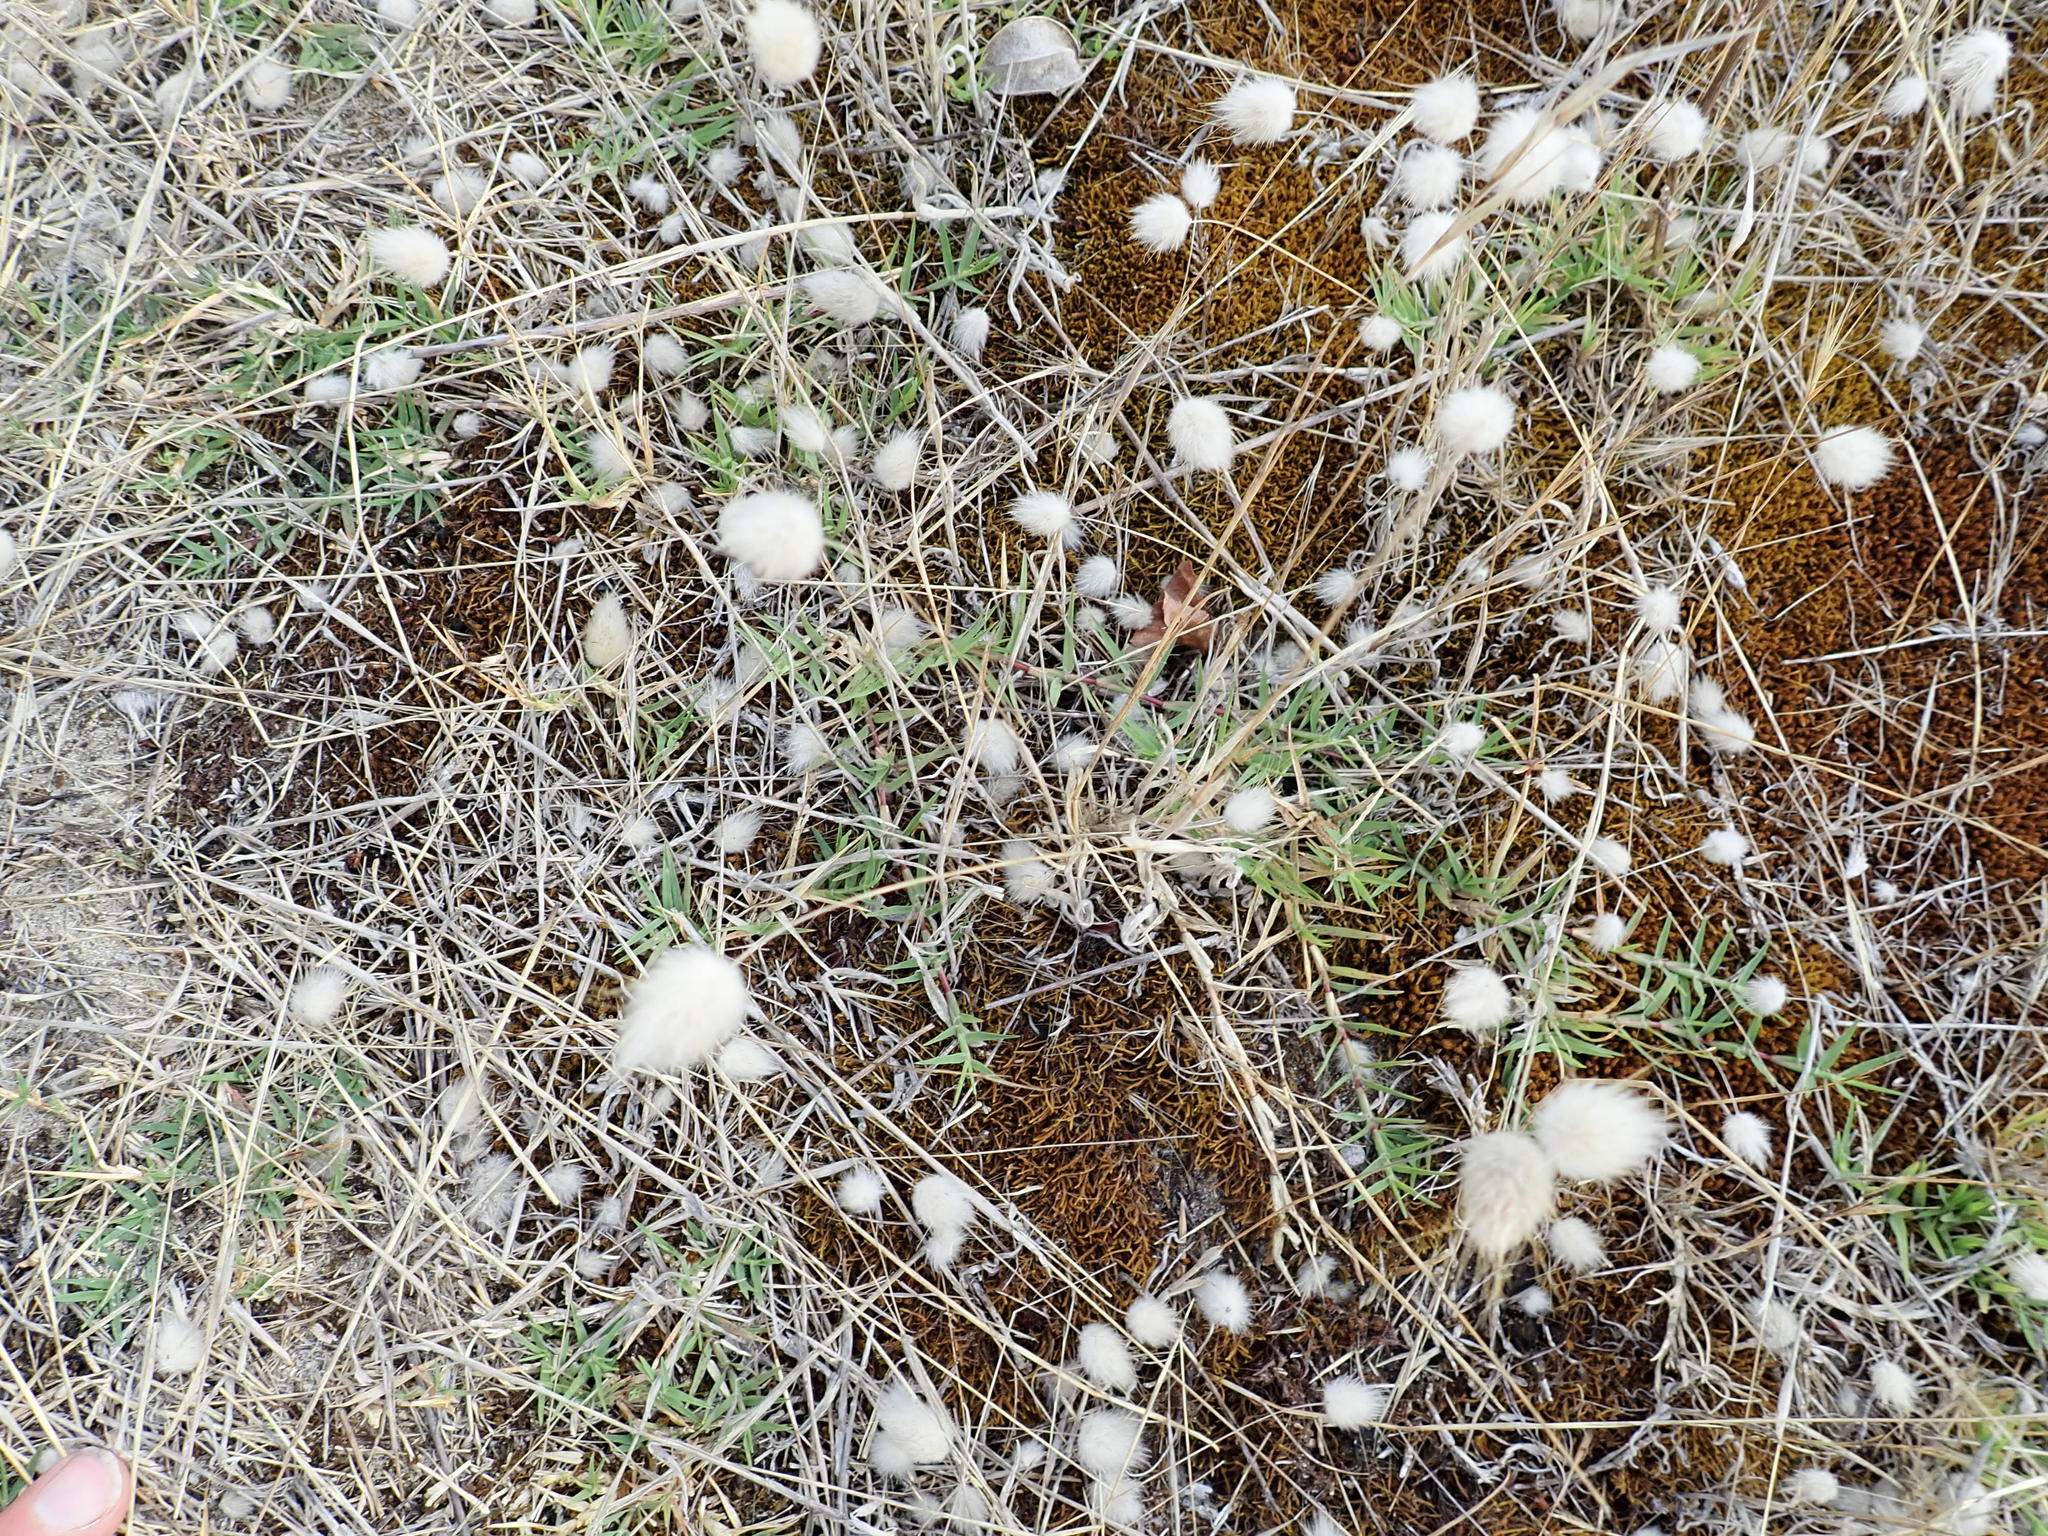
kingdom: Plantae
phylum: Tracheophyta
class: Liliopsida
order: Poales
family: Poaceae
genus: Lagurus
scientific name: Lagurus ovatus
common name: Hare's-tail
